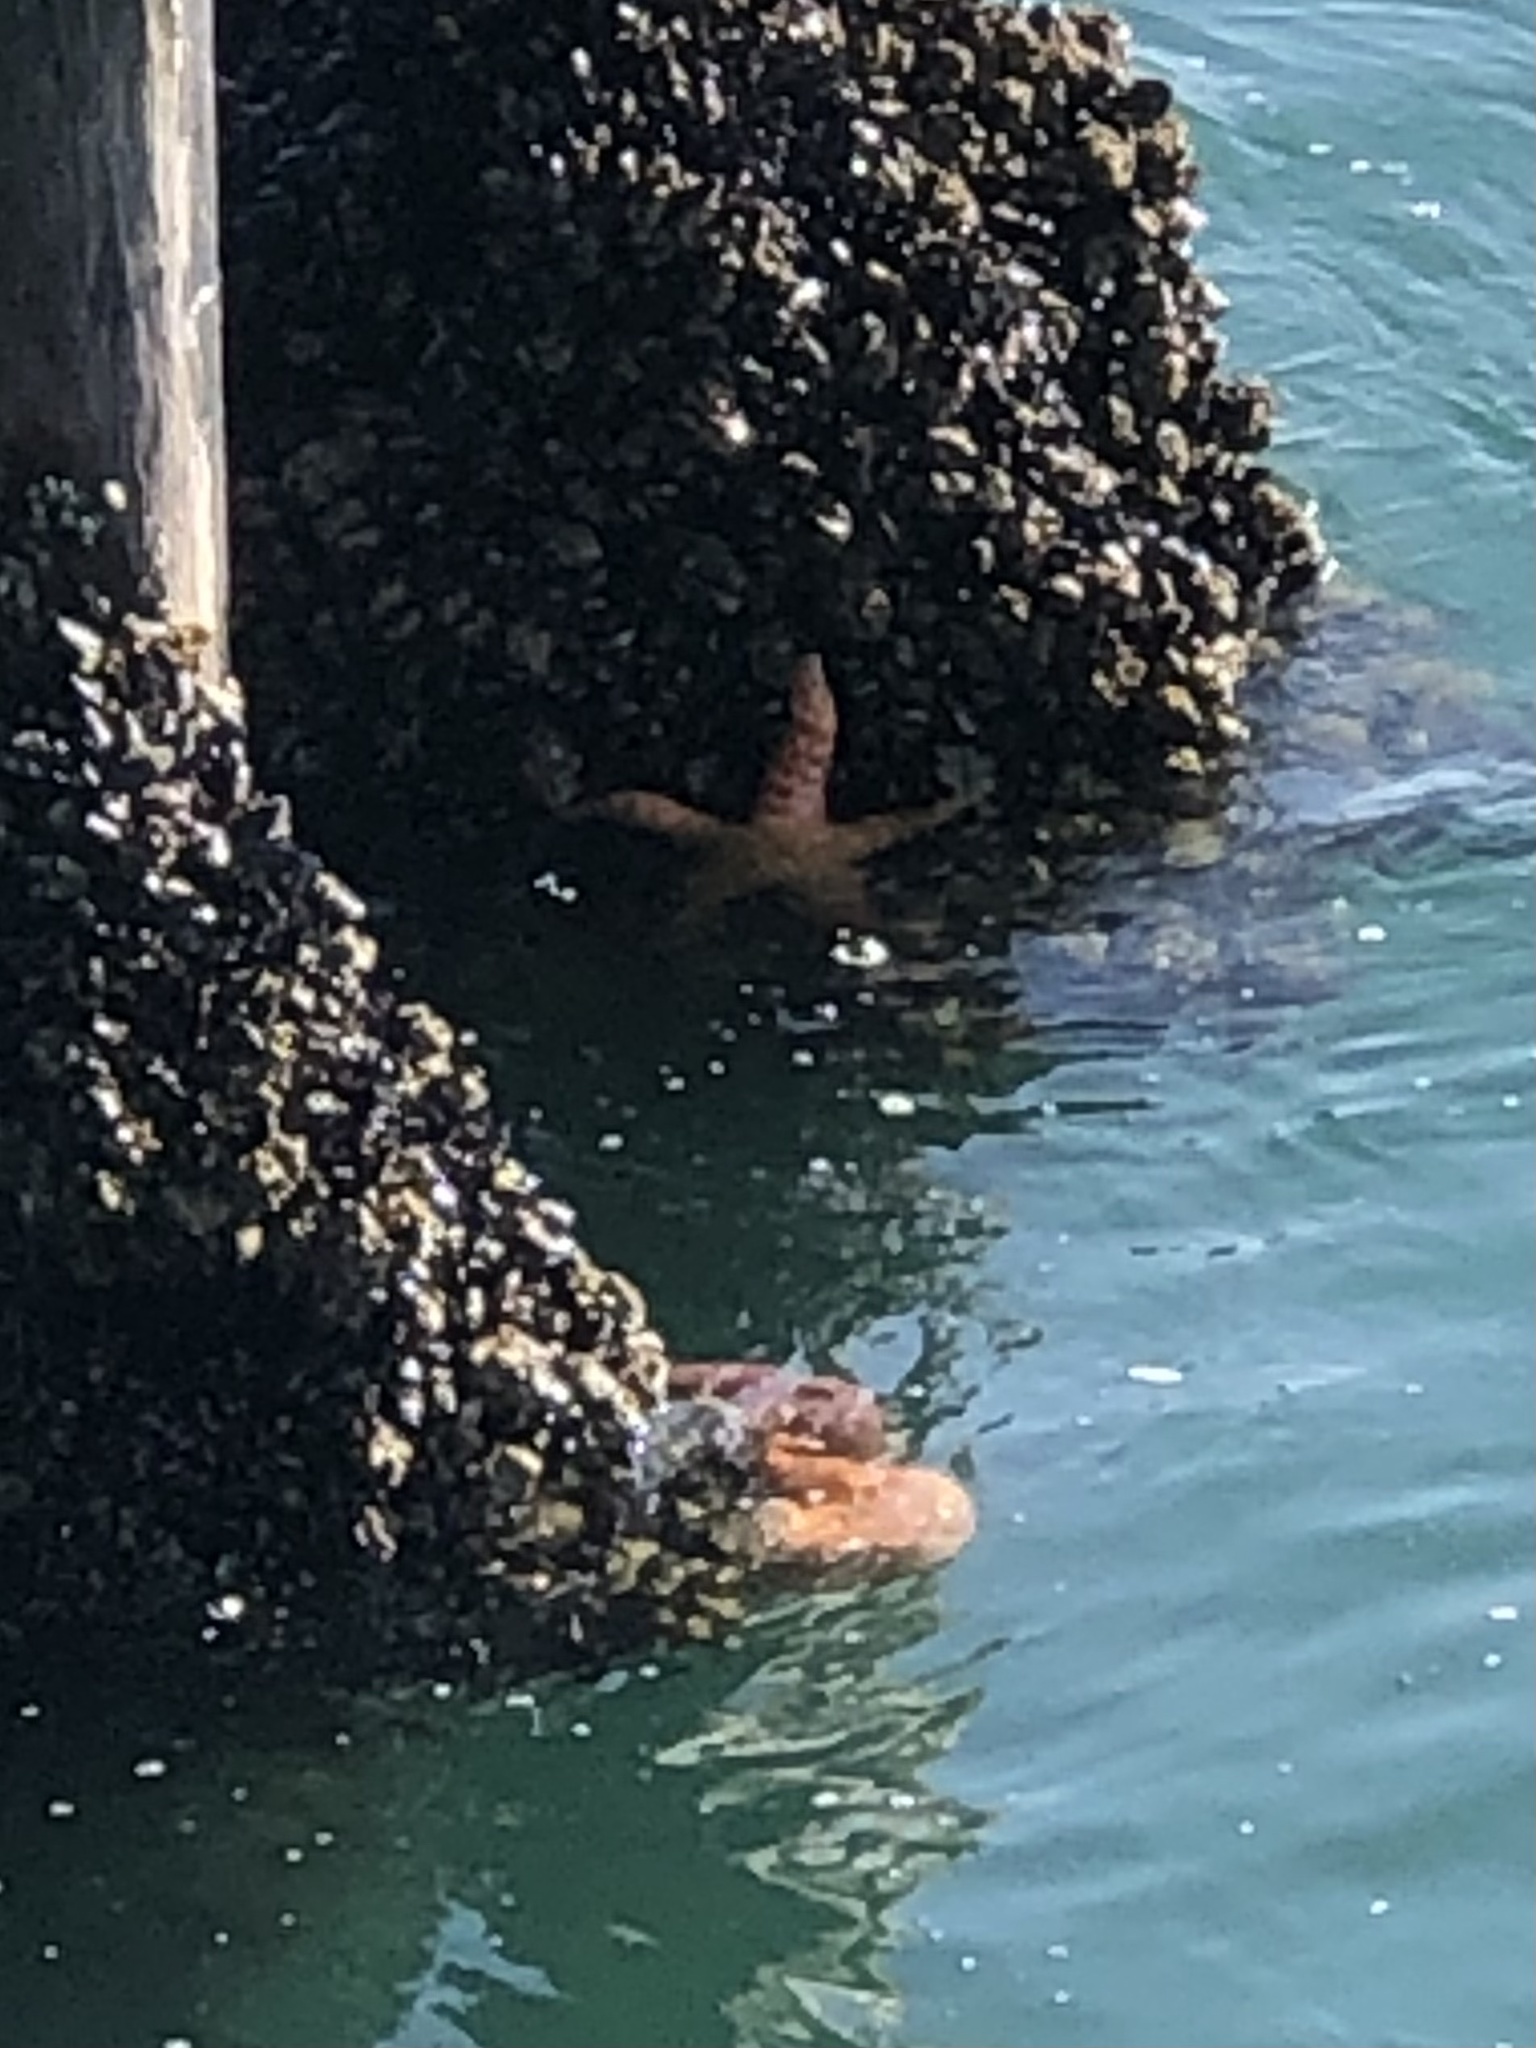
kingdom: Animalia
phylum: Echinodermata
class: Asteroidea
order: Forcipulatida
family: Asteriidae
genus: Pisaster
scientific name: Pisaster ochraceus
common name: Ochre stars
